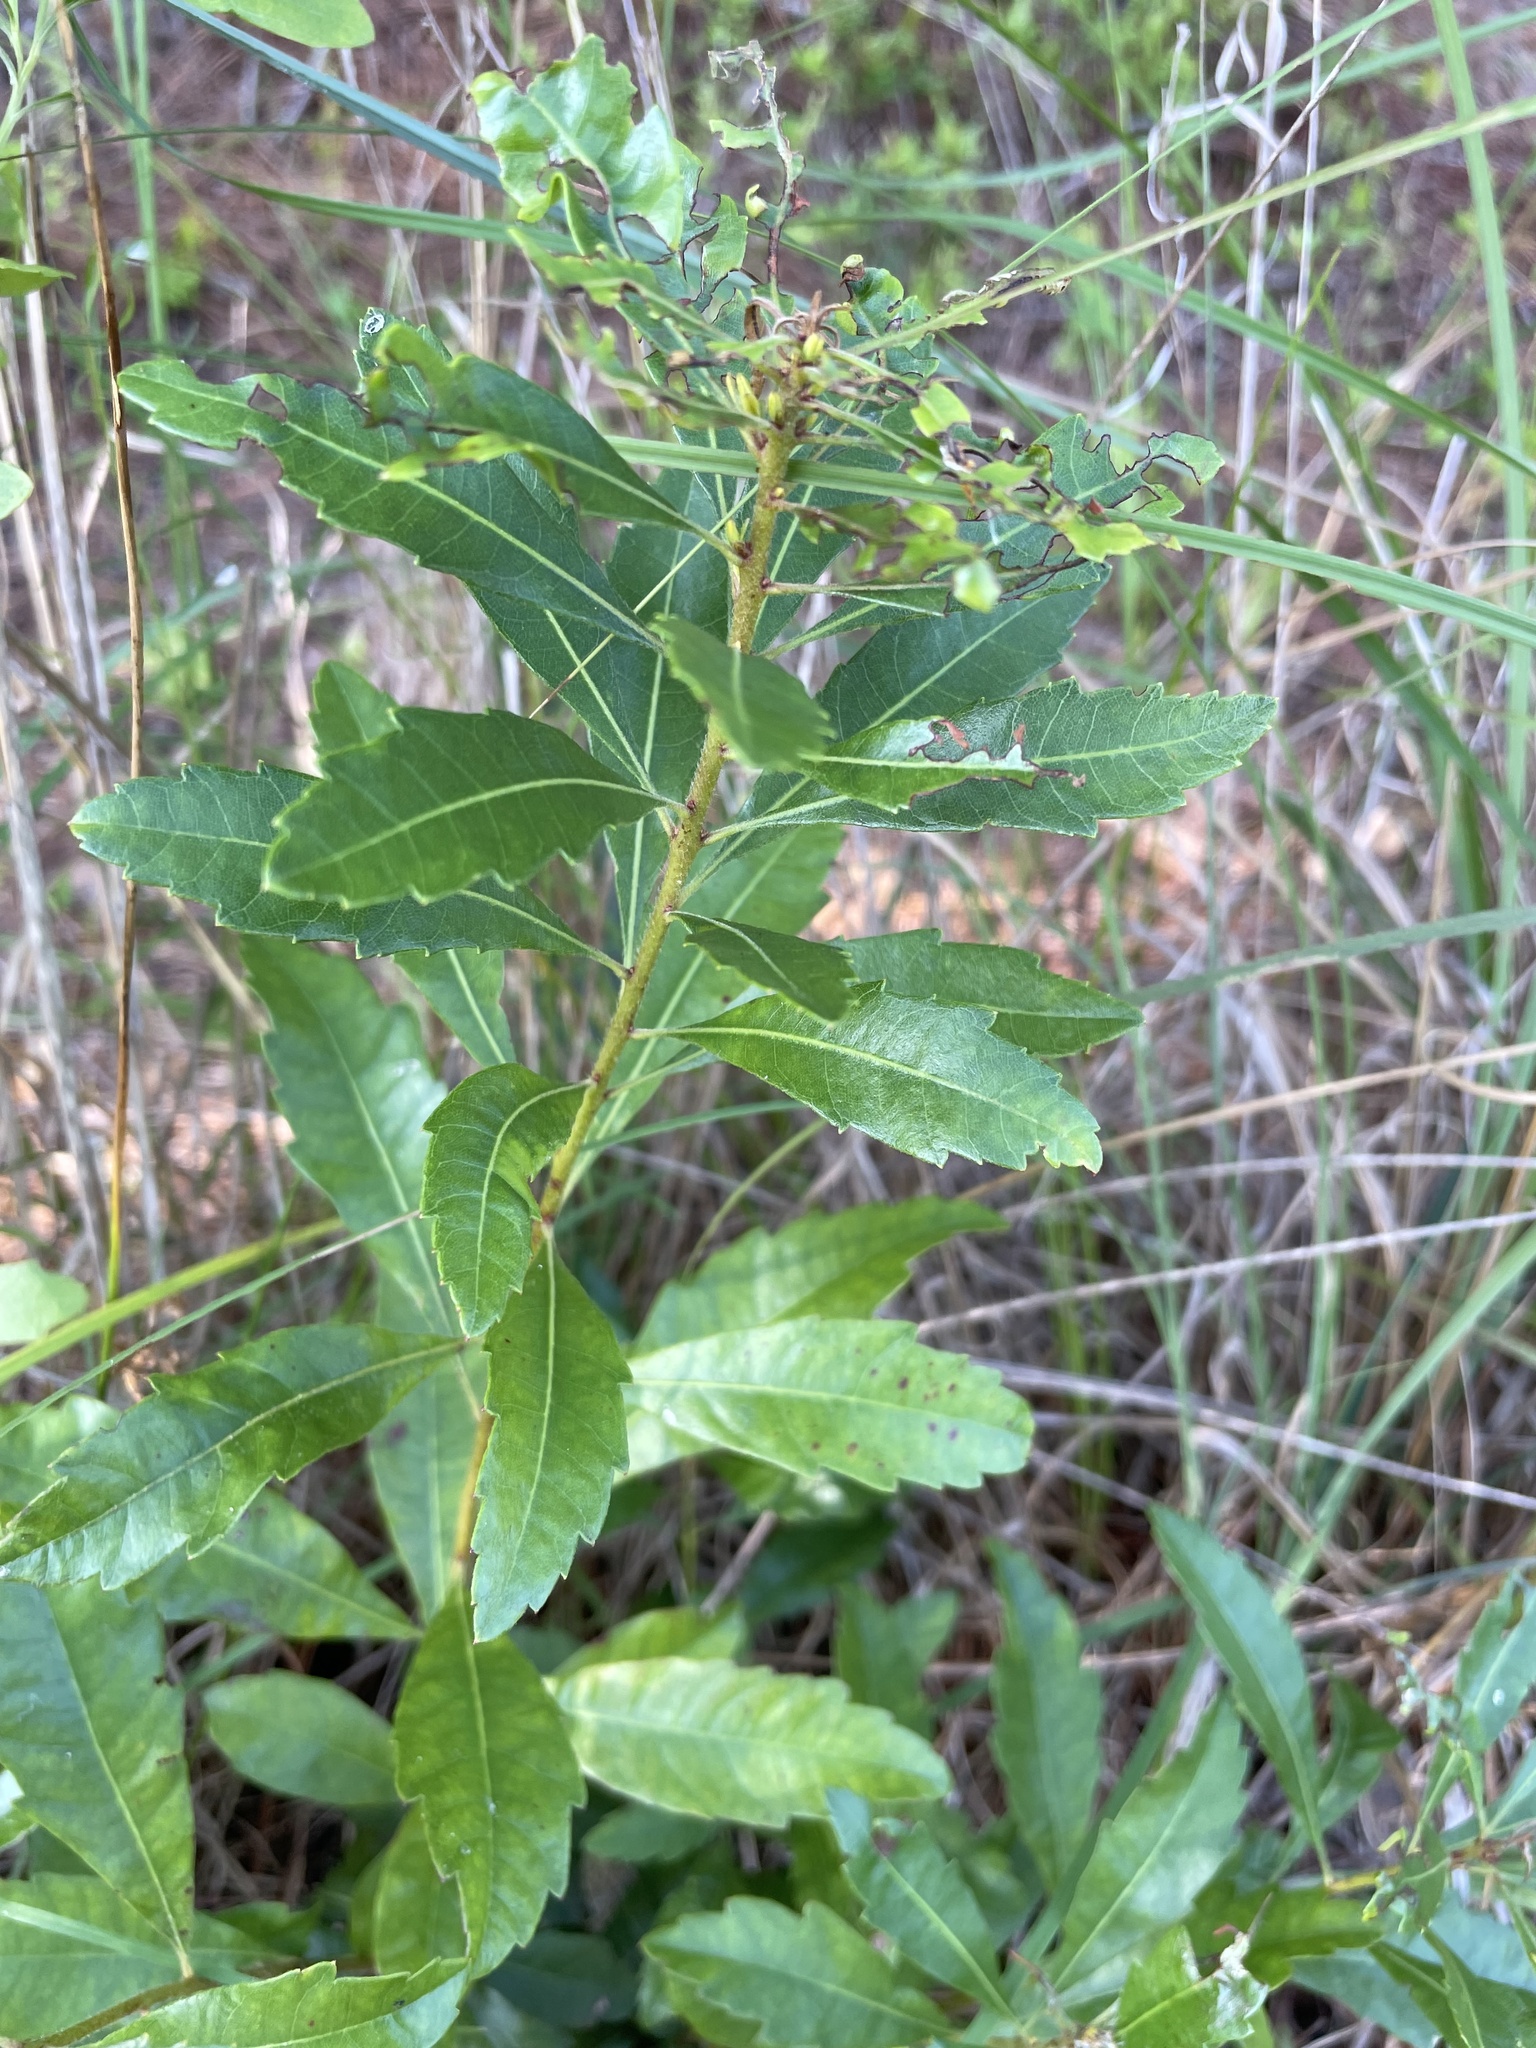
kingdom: Plantae
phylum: Tracheophyta
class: Magnoliopsida
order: Fagales
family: Myricaceae
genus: Morella
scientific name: Morella cerifera
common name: Wax myrtle
